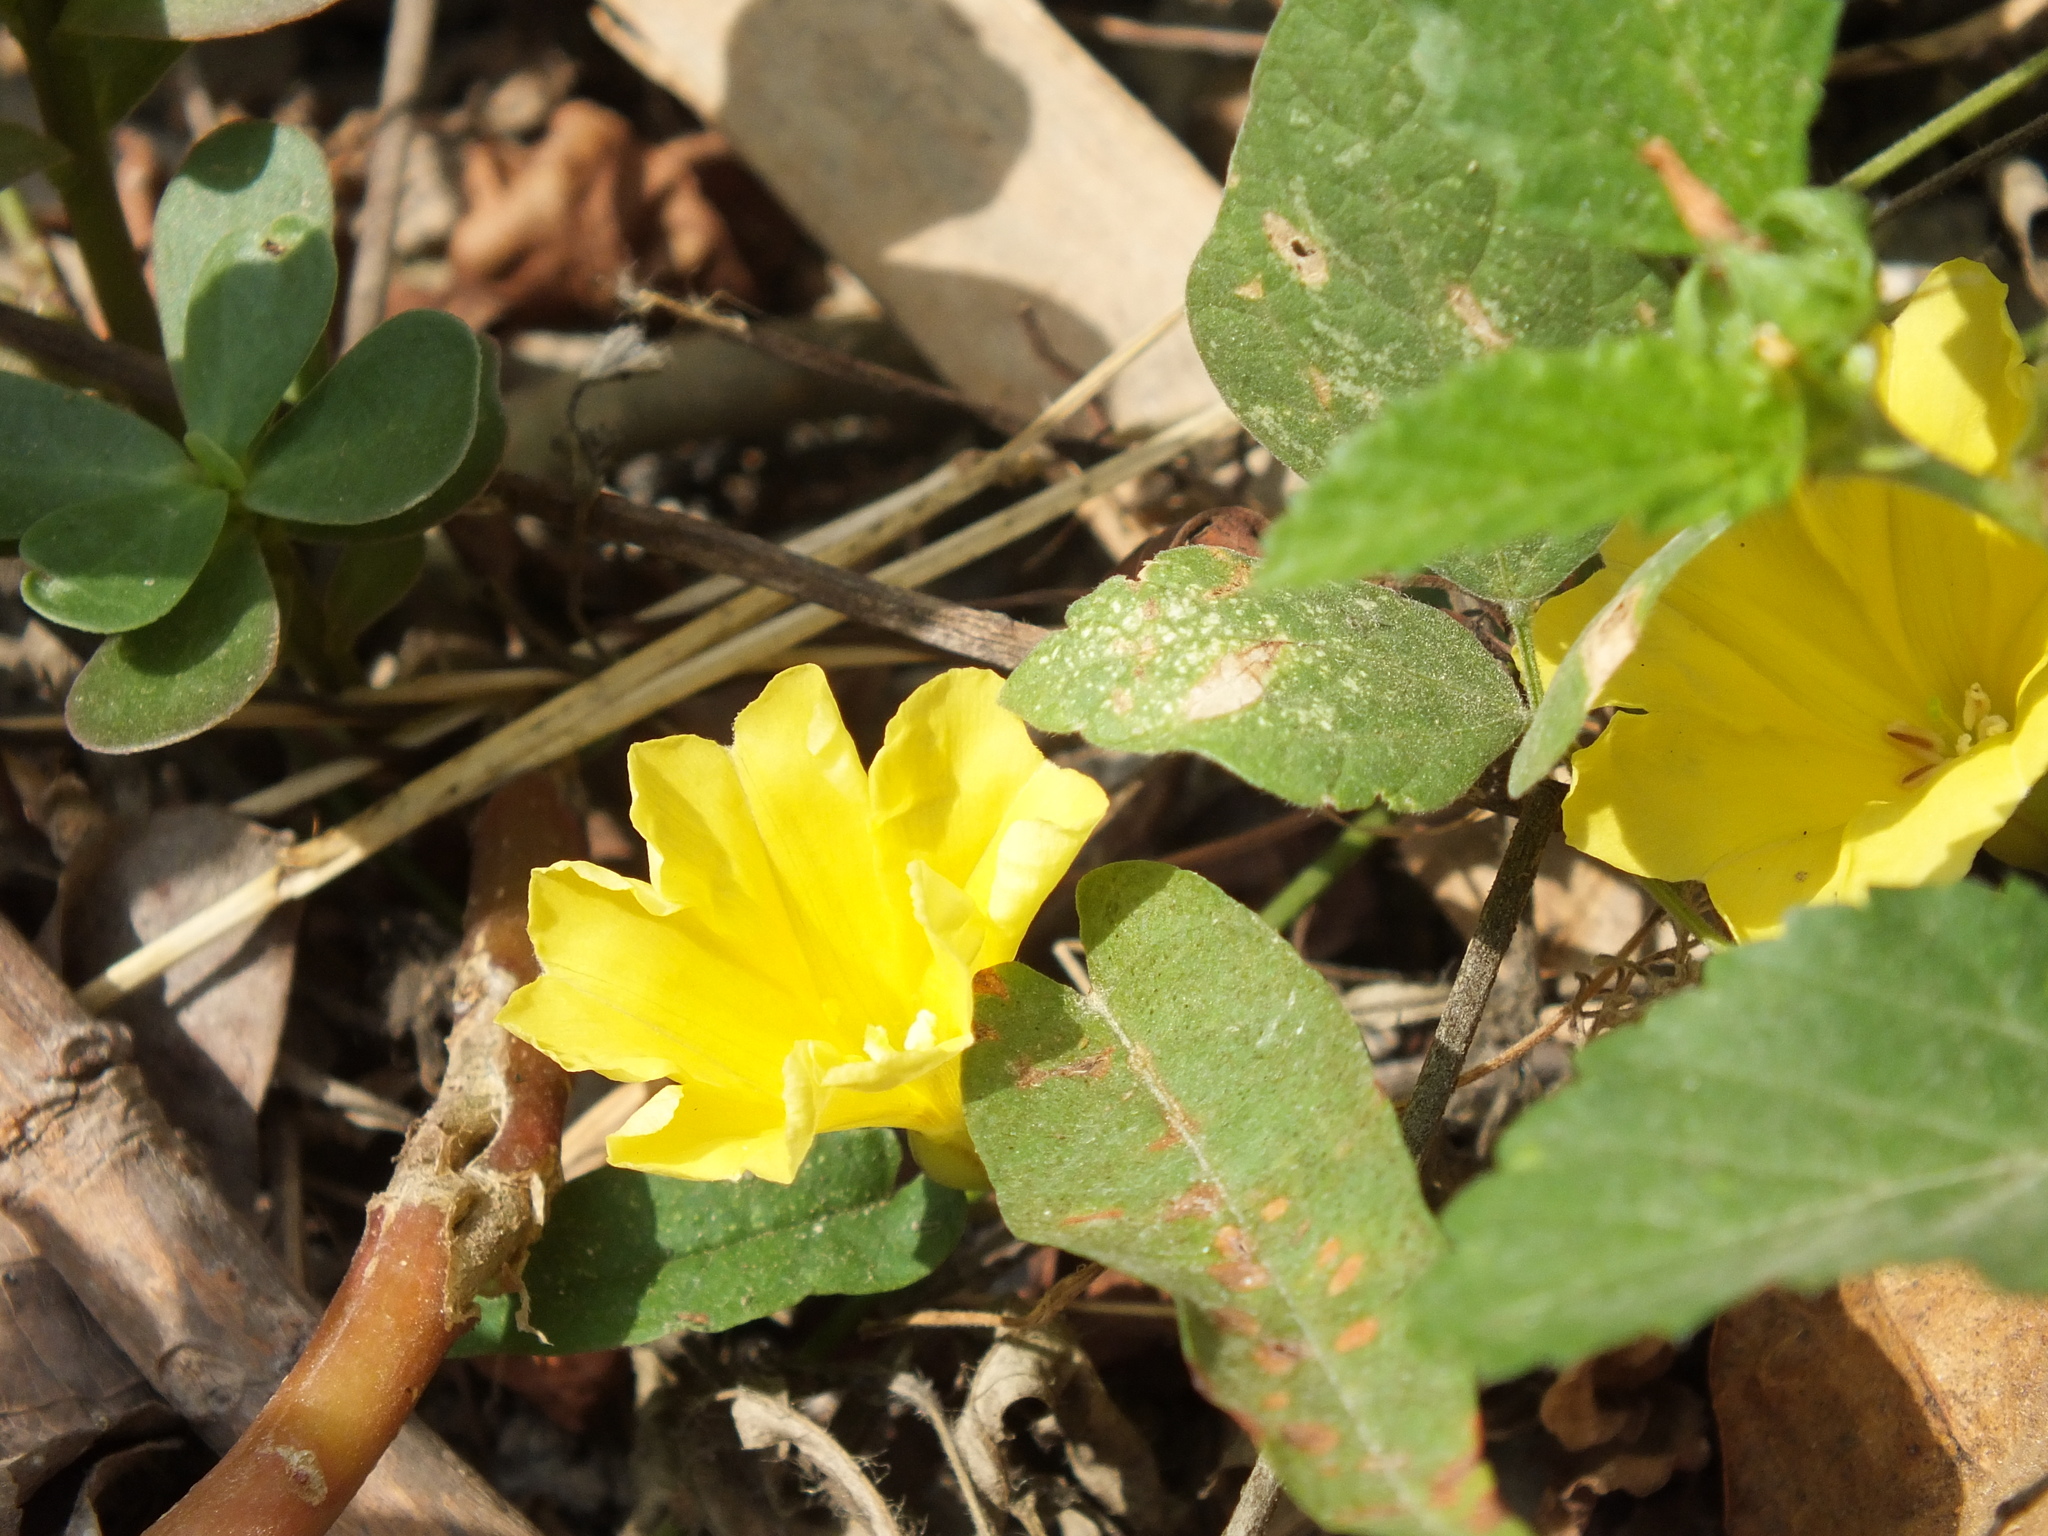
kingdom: Plantae
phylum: Tracheophyta
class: Magnoliopsida
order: Solanales
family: Convolvulaceae
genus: Camonea
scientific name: Camonea umbellata
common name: Hogvine
